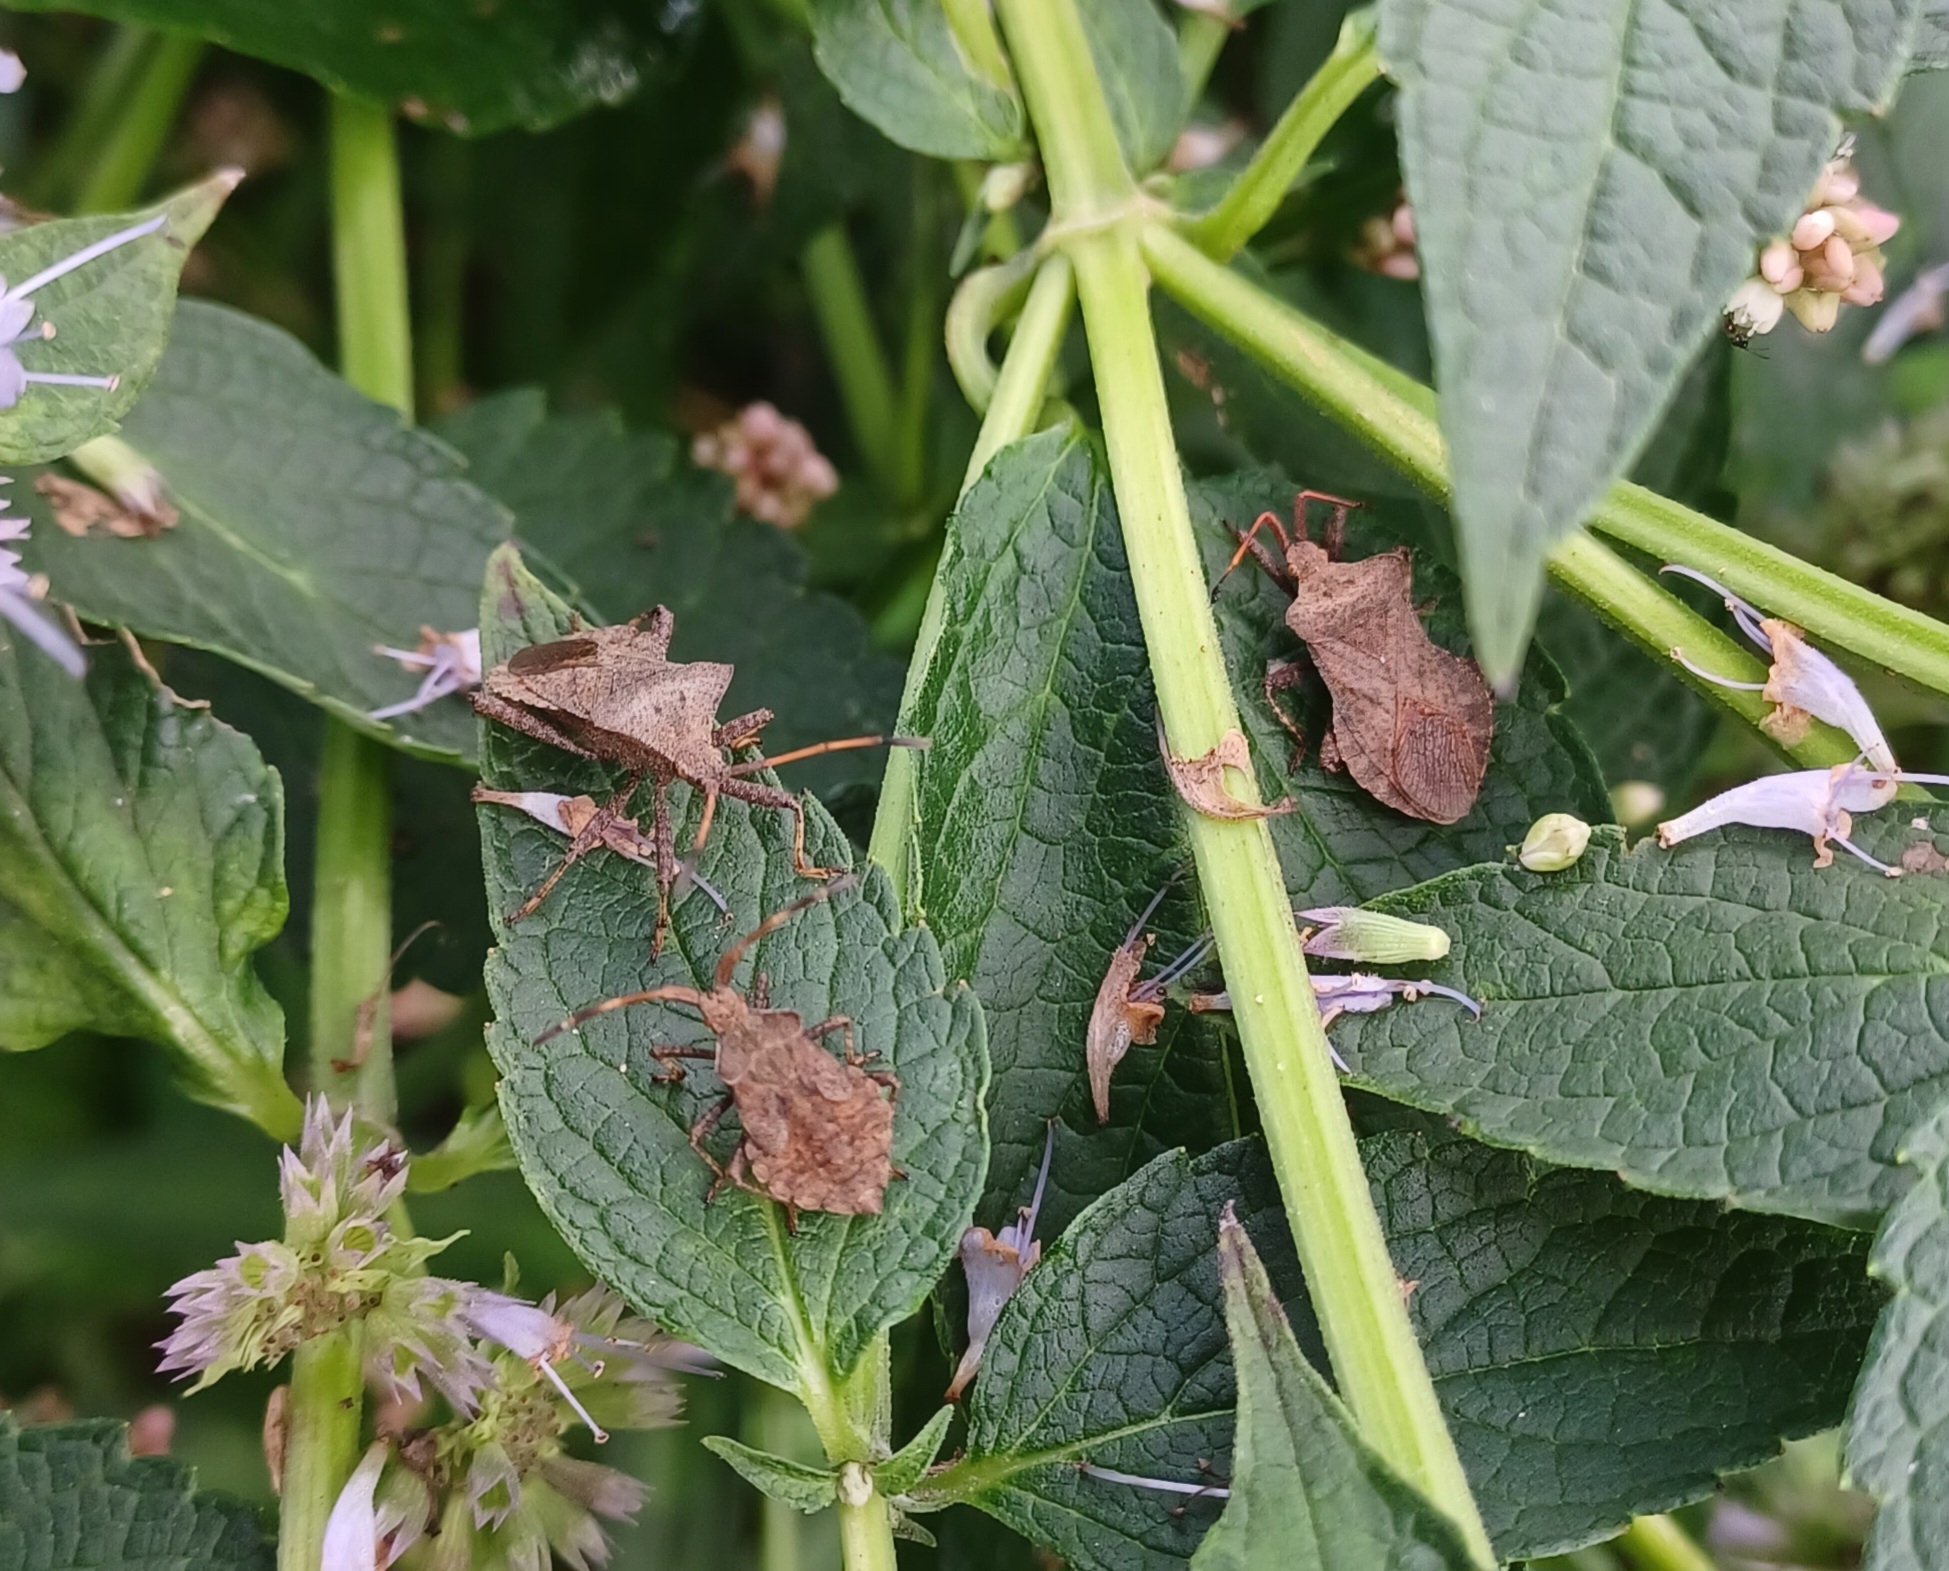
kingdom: Animalia
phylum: Arthropoda
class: Insecta
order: Hemiptera
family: Coreidae
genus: Coreus
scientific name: Coreus marginatus
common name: Dock bug
